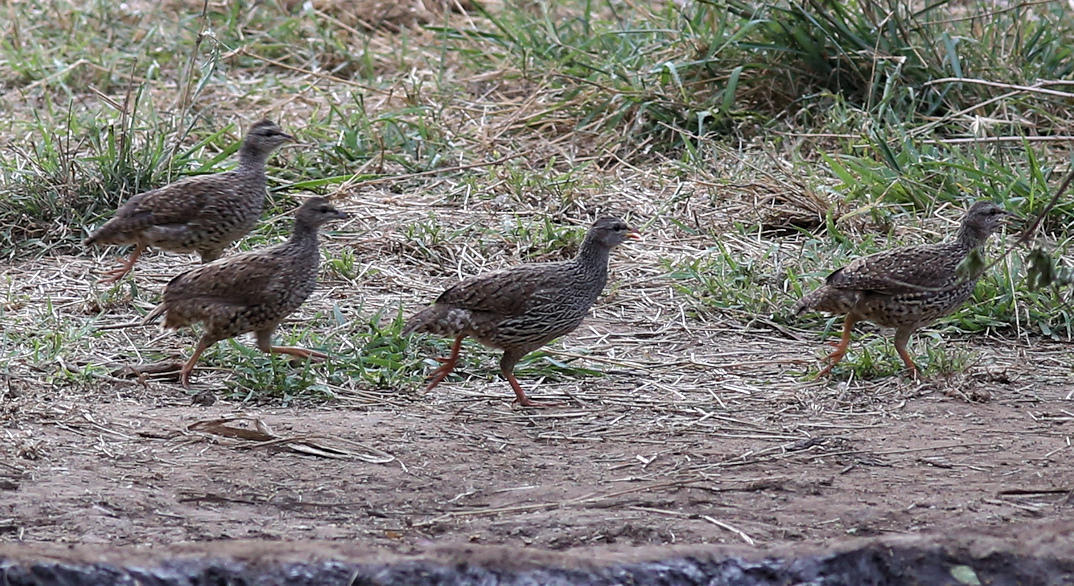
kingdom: Animalia
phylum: Chordata
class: Aves
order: Galliformes
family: Phasianidae
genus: Pternistis
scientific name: Pternistis natalensis
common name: Natal spurfowl
